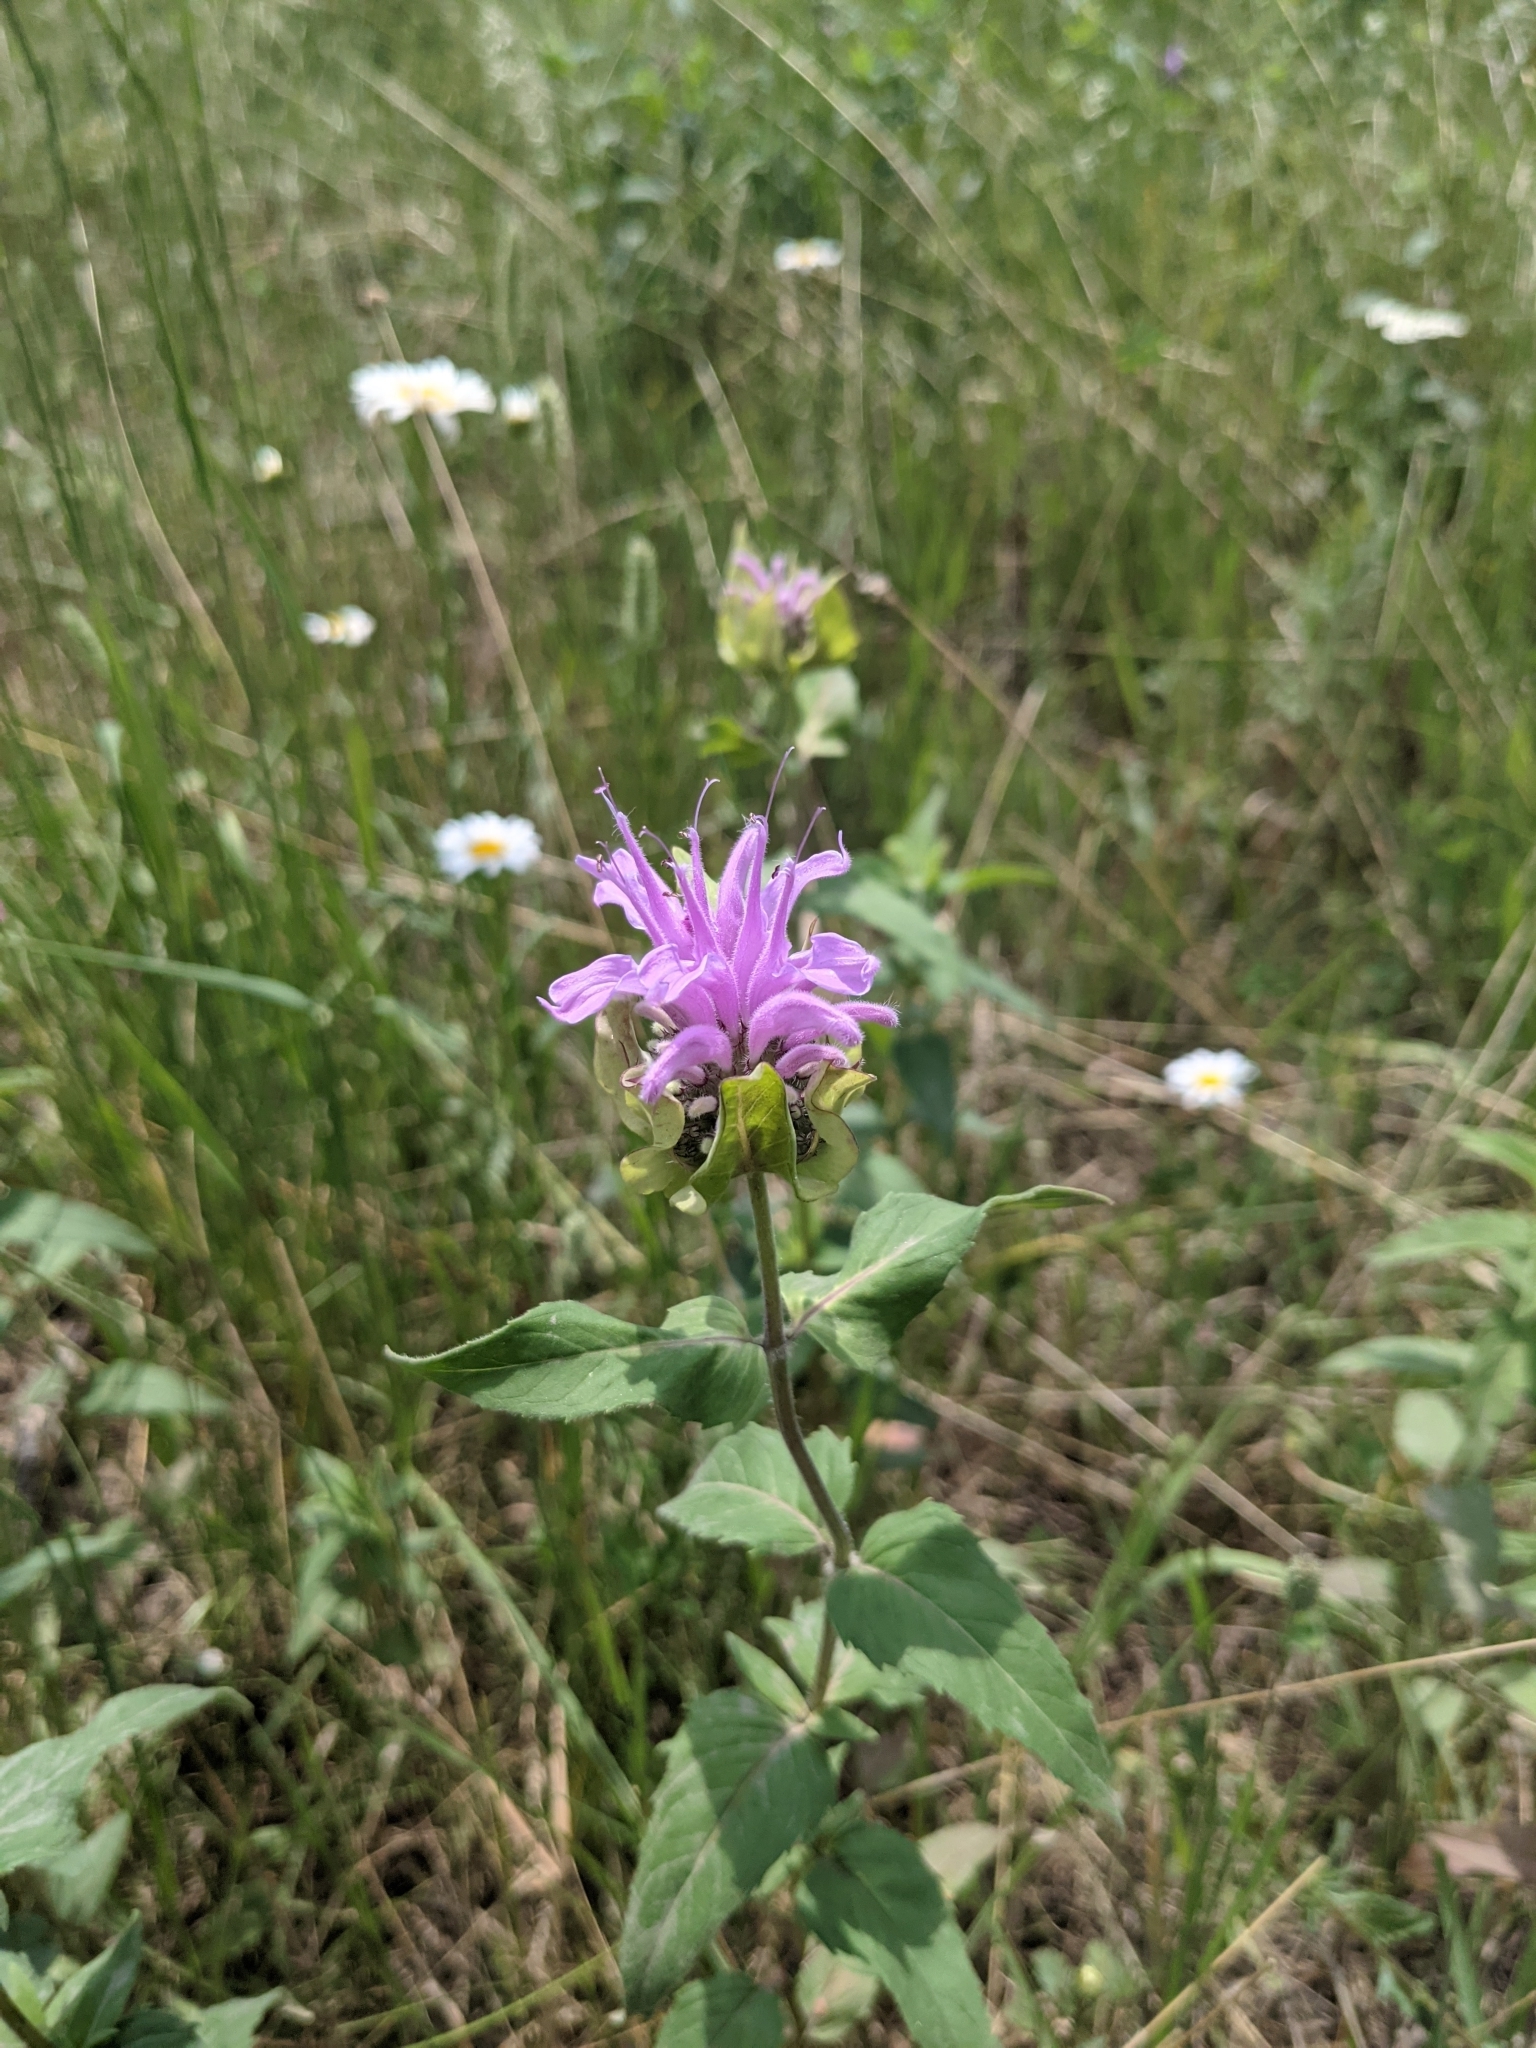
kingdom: Plantae
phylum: Tracheophyta
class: Magnoliopsida
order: Lamiales
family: Lamiaceae
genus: Monarda
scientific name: Monarda fistulosa
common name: Purple beebalm
